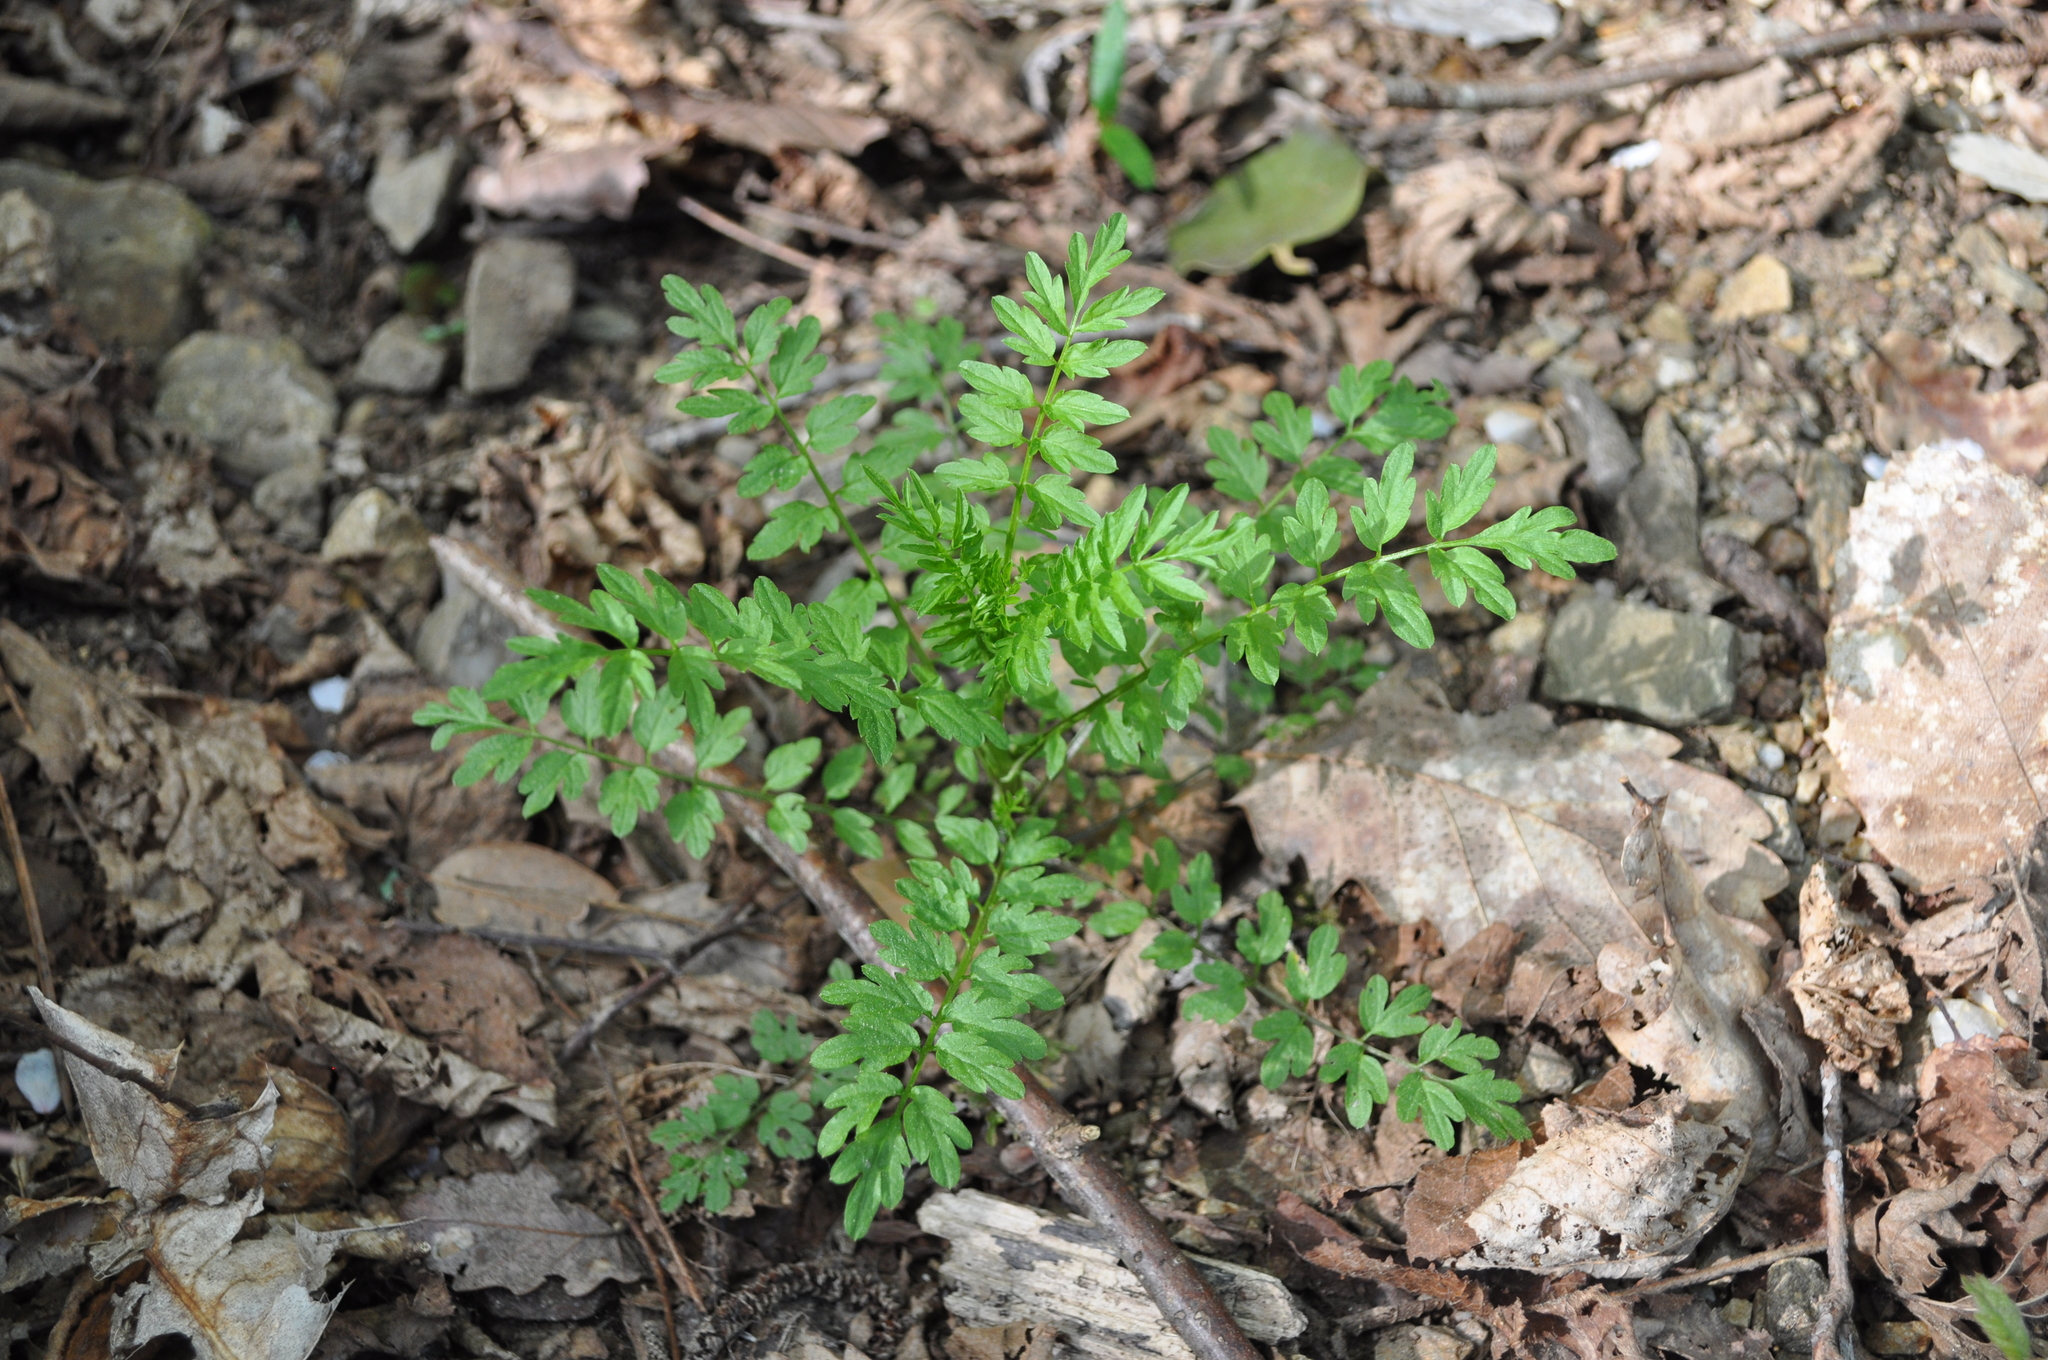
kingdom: Plantae
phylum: Tracheophyta
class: Magnoliopsida
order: Brassicales
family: Brassicaceae
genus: Cardamine
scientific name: Cardamine impatiens
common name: Narrow-leaved bitter-cress
